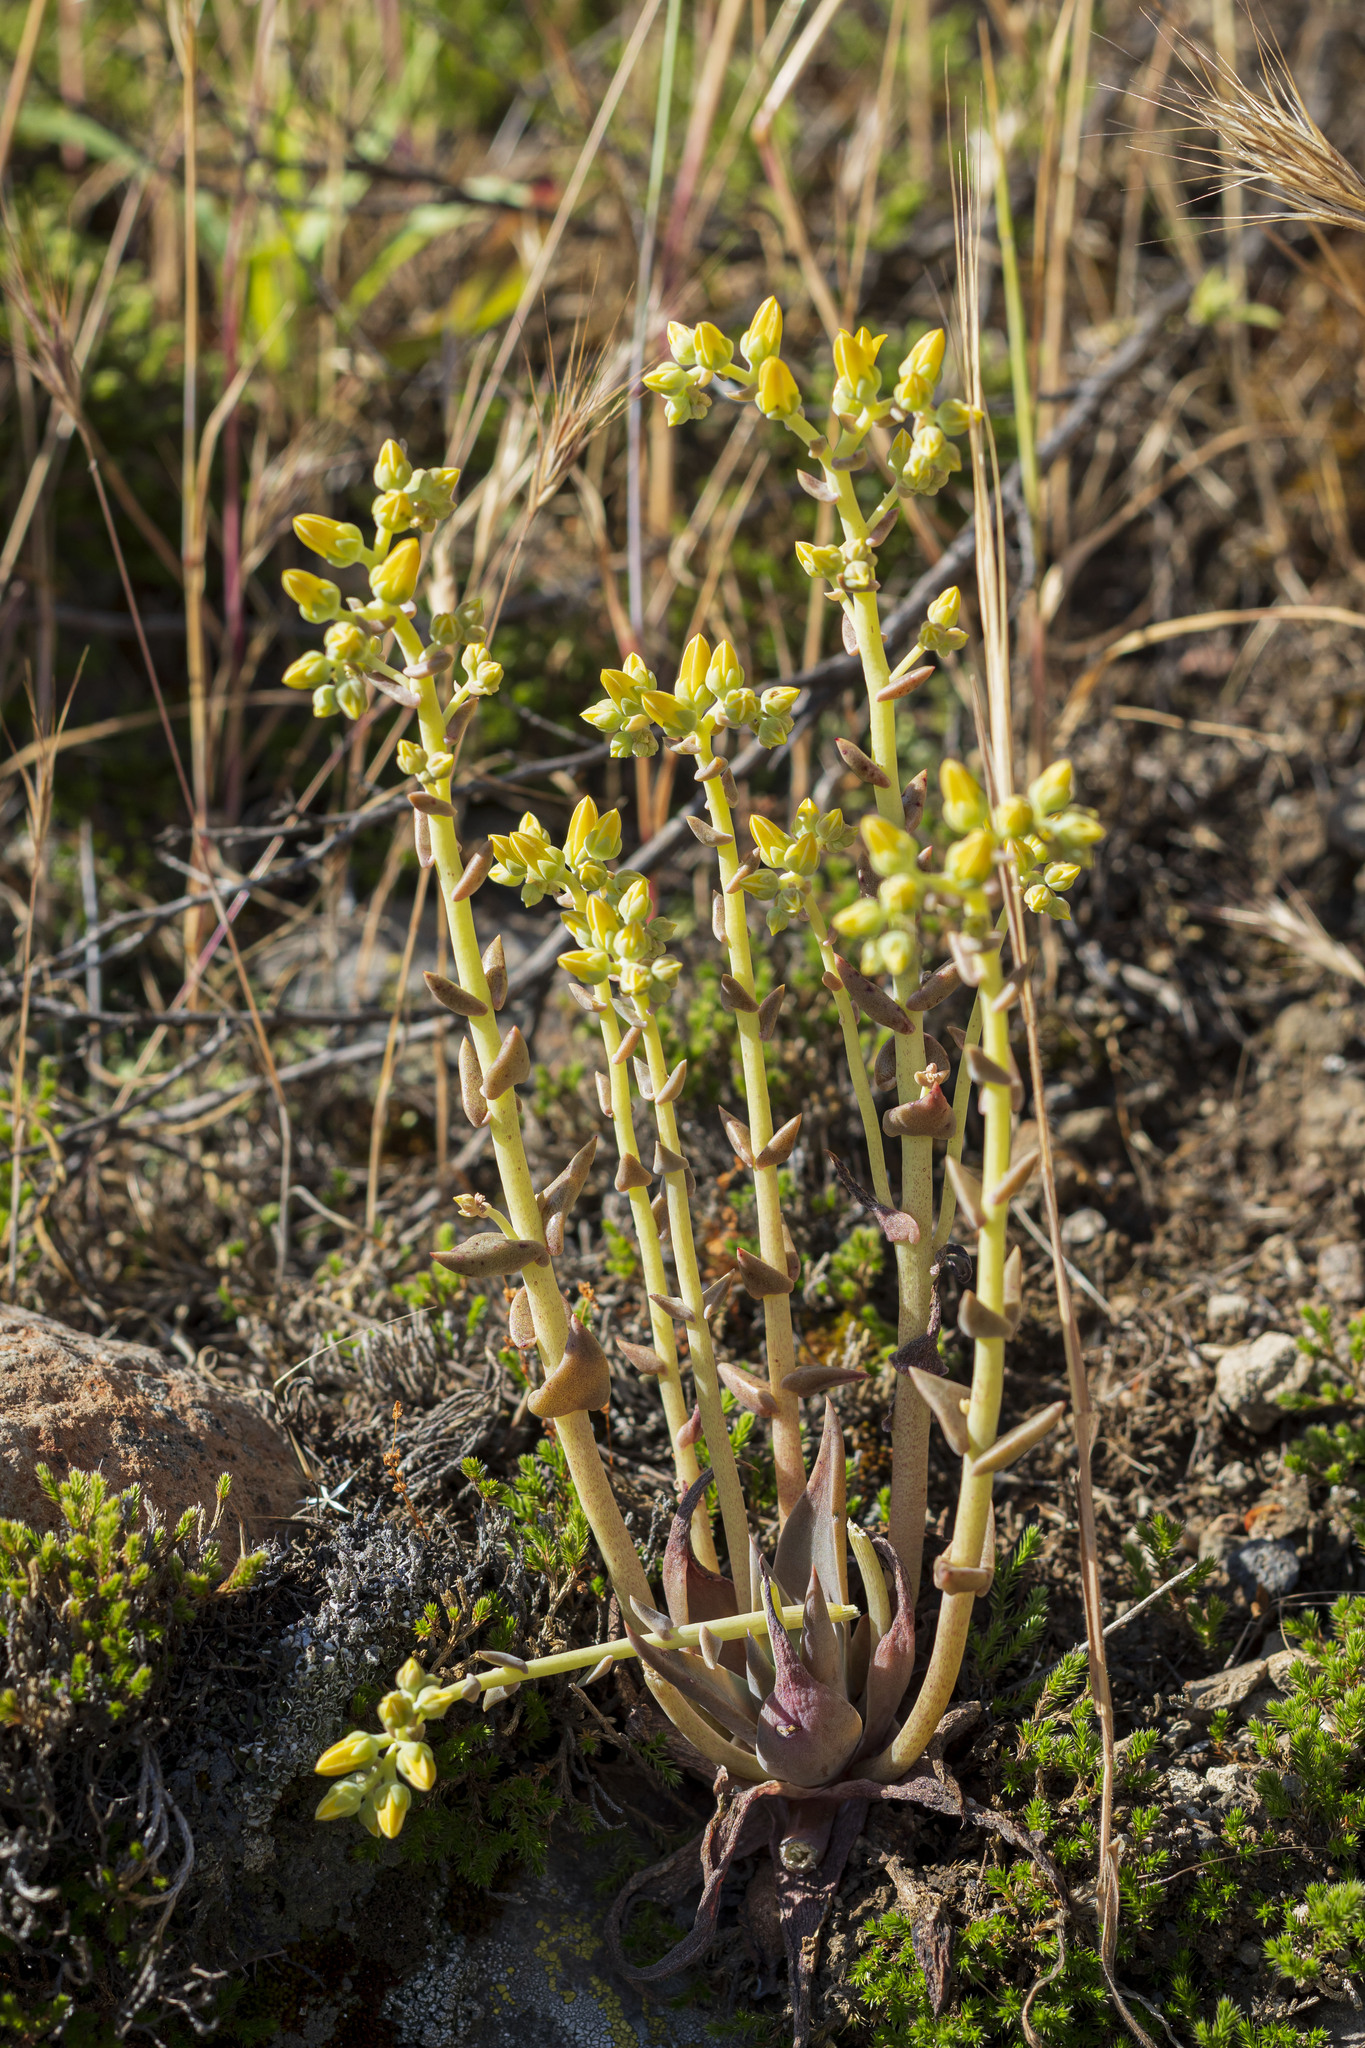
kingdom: Plantae
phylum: Tracheophyta
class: Magnoliopsida
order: Saxifragales
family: Crassulaceae
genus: Dudleya
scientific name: Dudleya cymosa
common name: Canyon dudleya
